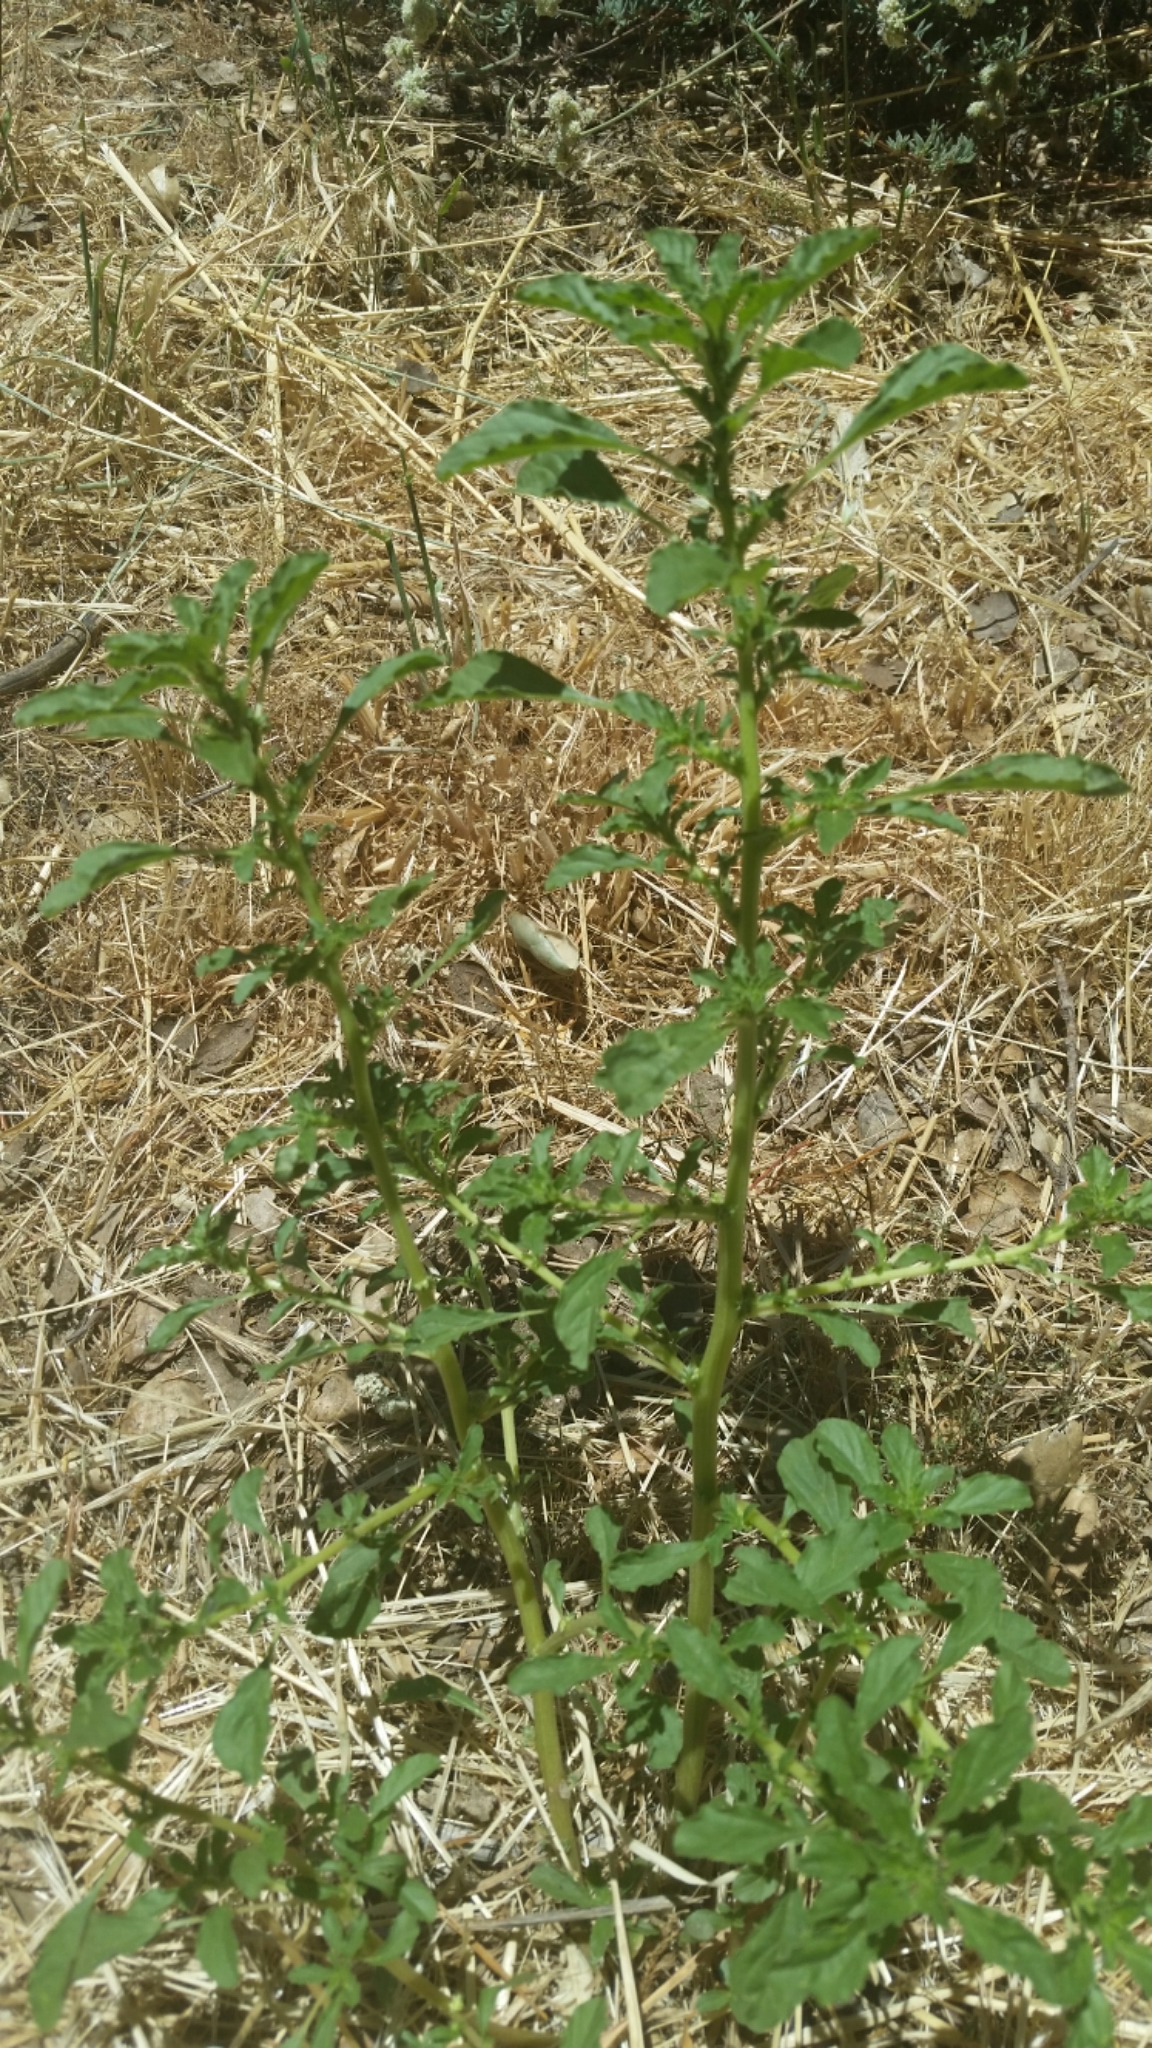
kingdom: Plantae
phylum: Tracheophyta
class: Magnoliopsida
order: Caryophyllales
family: Amaranthaceae
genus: Amaranthus
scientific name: Amaranthus albus
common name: White pigweed
